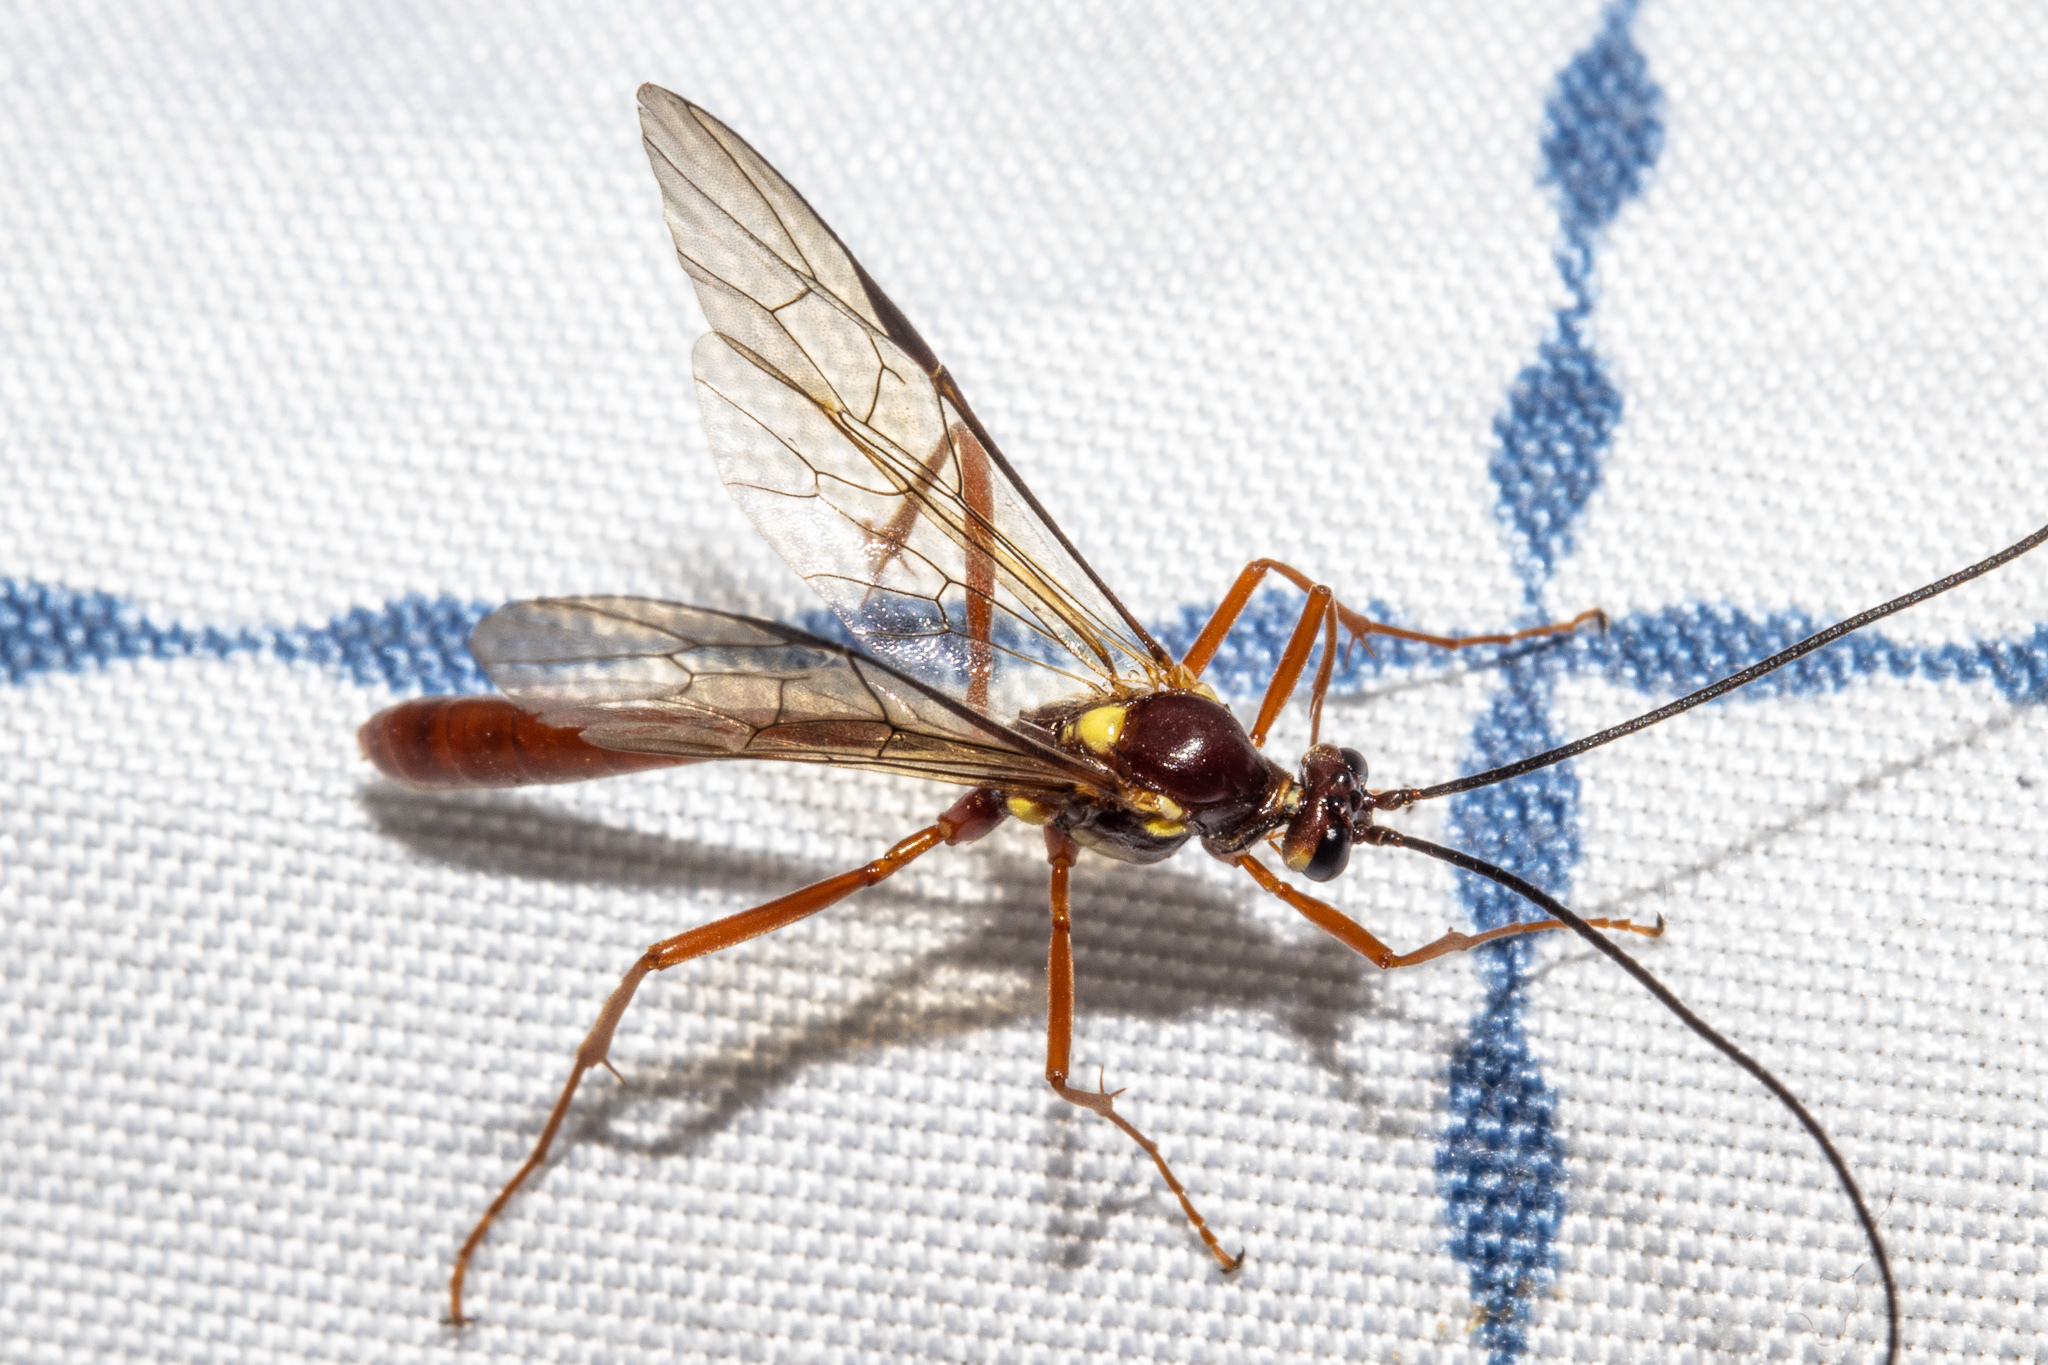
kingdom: Animalia
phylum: Arthropoda
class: Insecta
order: Hymenoptera
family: Ichneumonidae
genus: Ophion
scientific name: Ophion peregrinus
